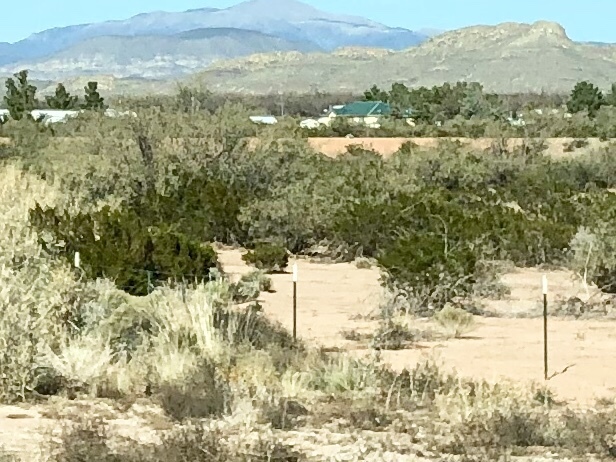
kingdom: Plantae
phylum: Tracheophyta
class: Magnoliopsida
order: Zygophyllales
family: Zygophyllaceae
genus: Larrea
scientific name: Larrea tridentata
